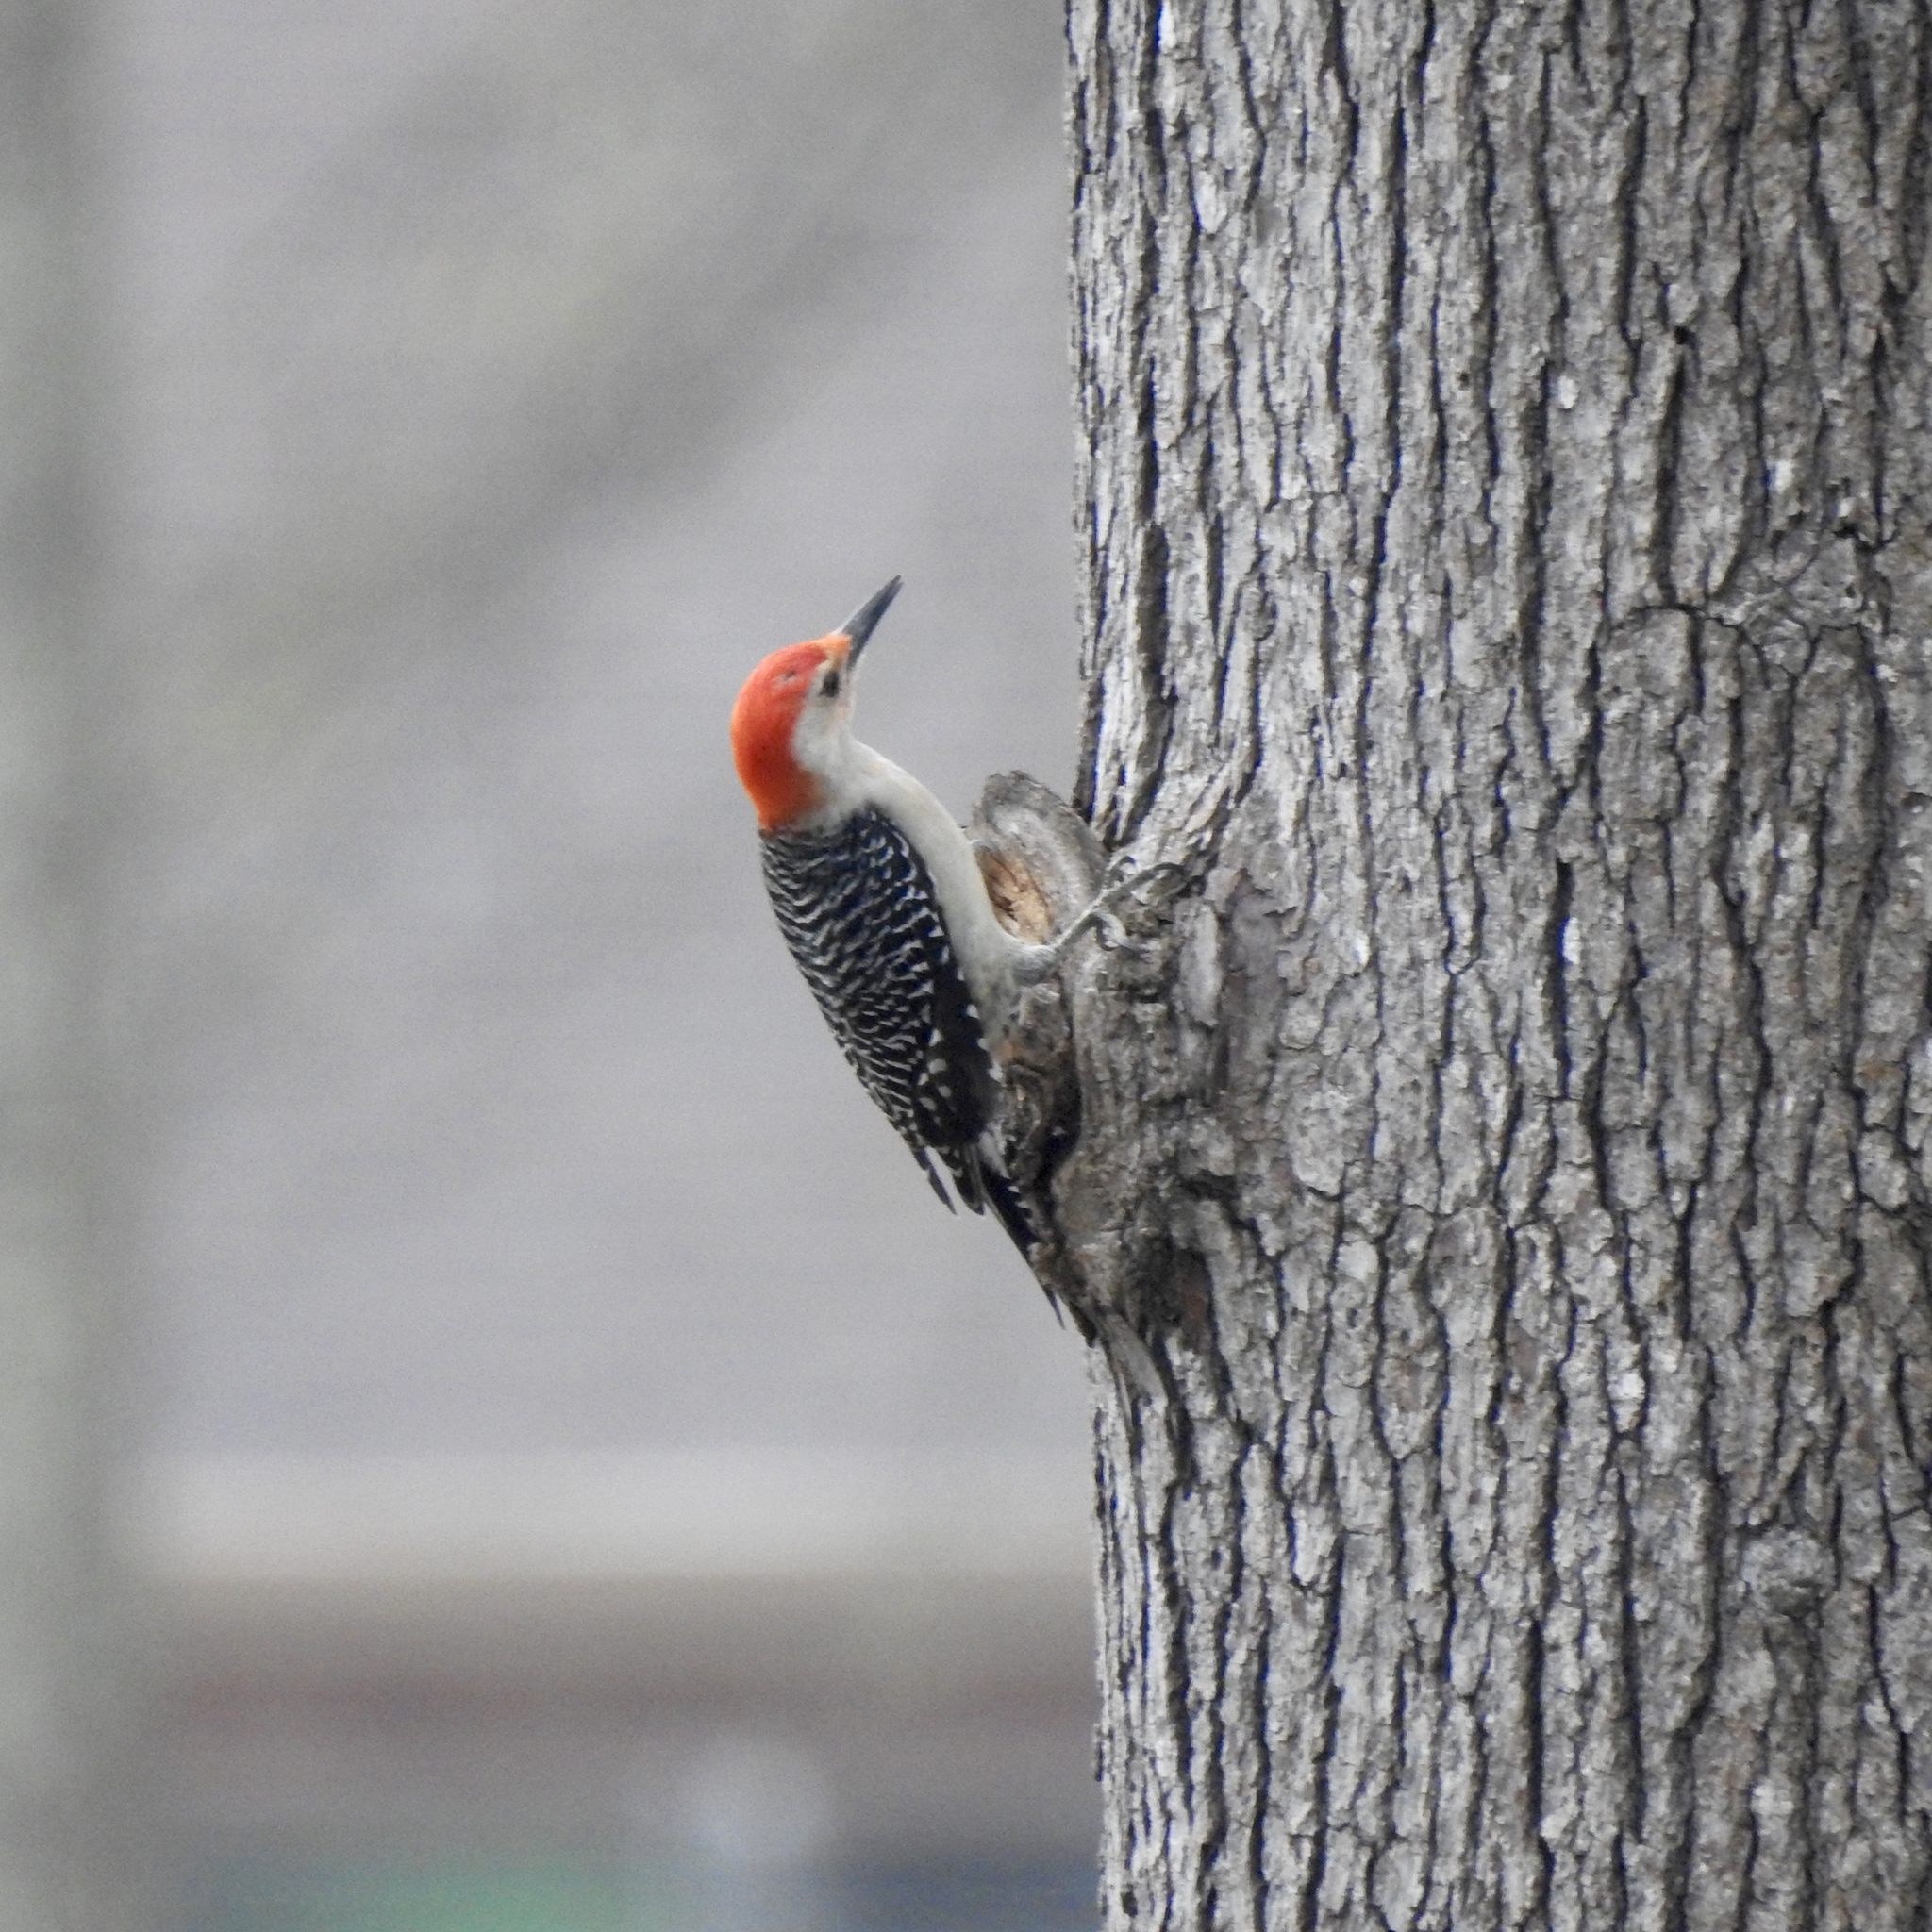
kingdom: Animalia
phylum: Chordata
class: Aves
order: Piciformes
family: Picidae
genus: Melanerpes
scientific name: Melanerpes carolinus
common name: Red-bellied woodpecker
